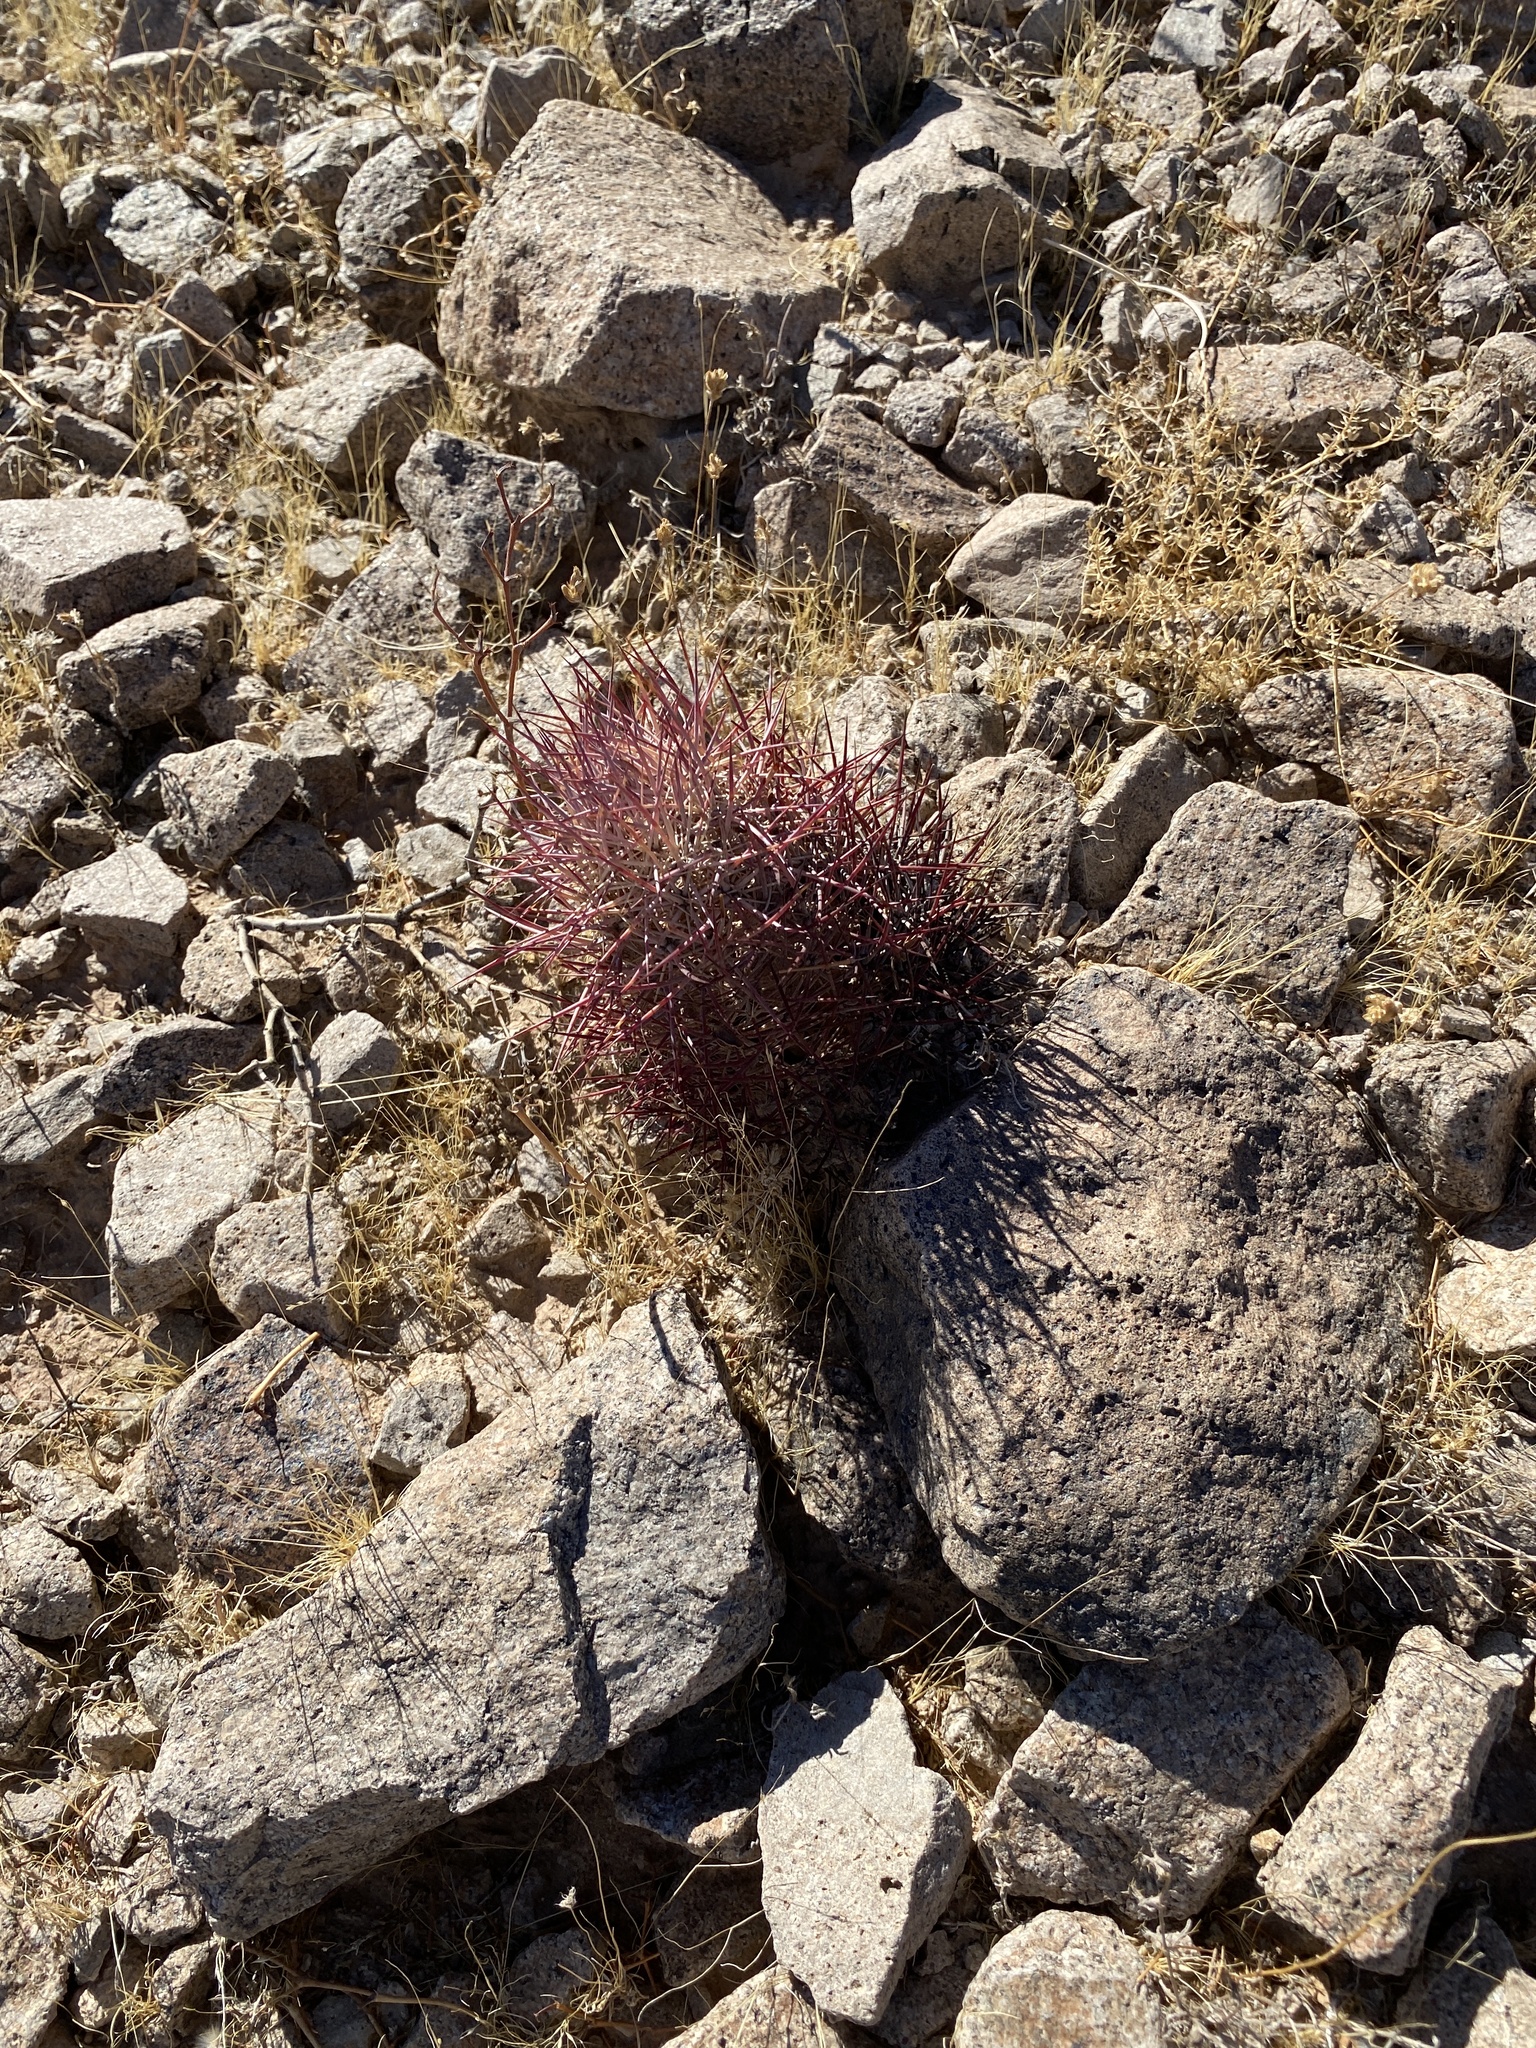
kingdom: Plantae
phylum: Tracheophyta
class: Magnoliopsida
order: Caryophyllales
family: Cactaceae
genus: Sclerocactus
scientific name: Sclerocactus johnsonii
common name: Eight-spine fishhook cactus
